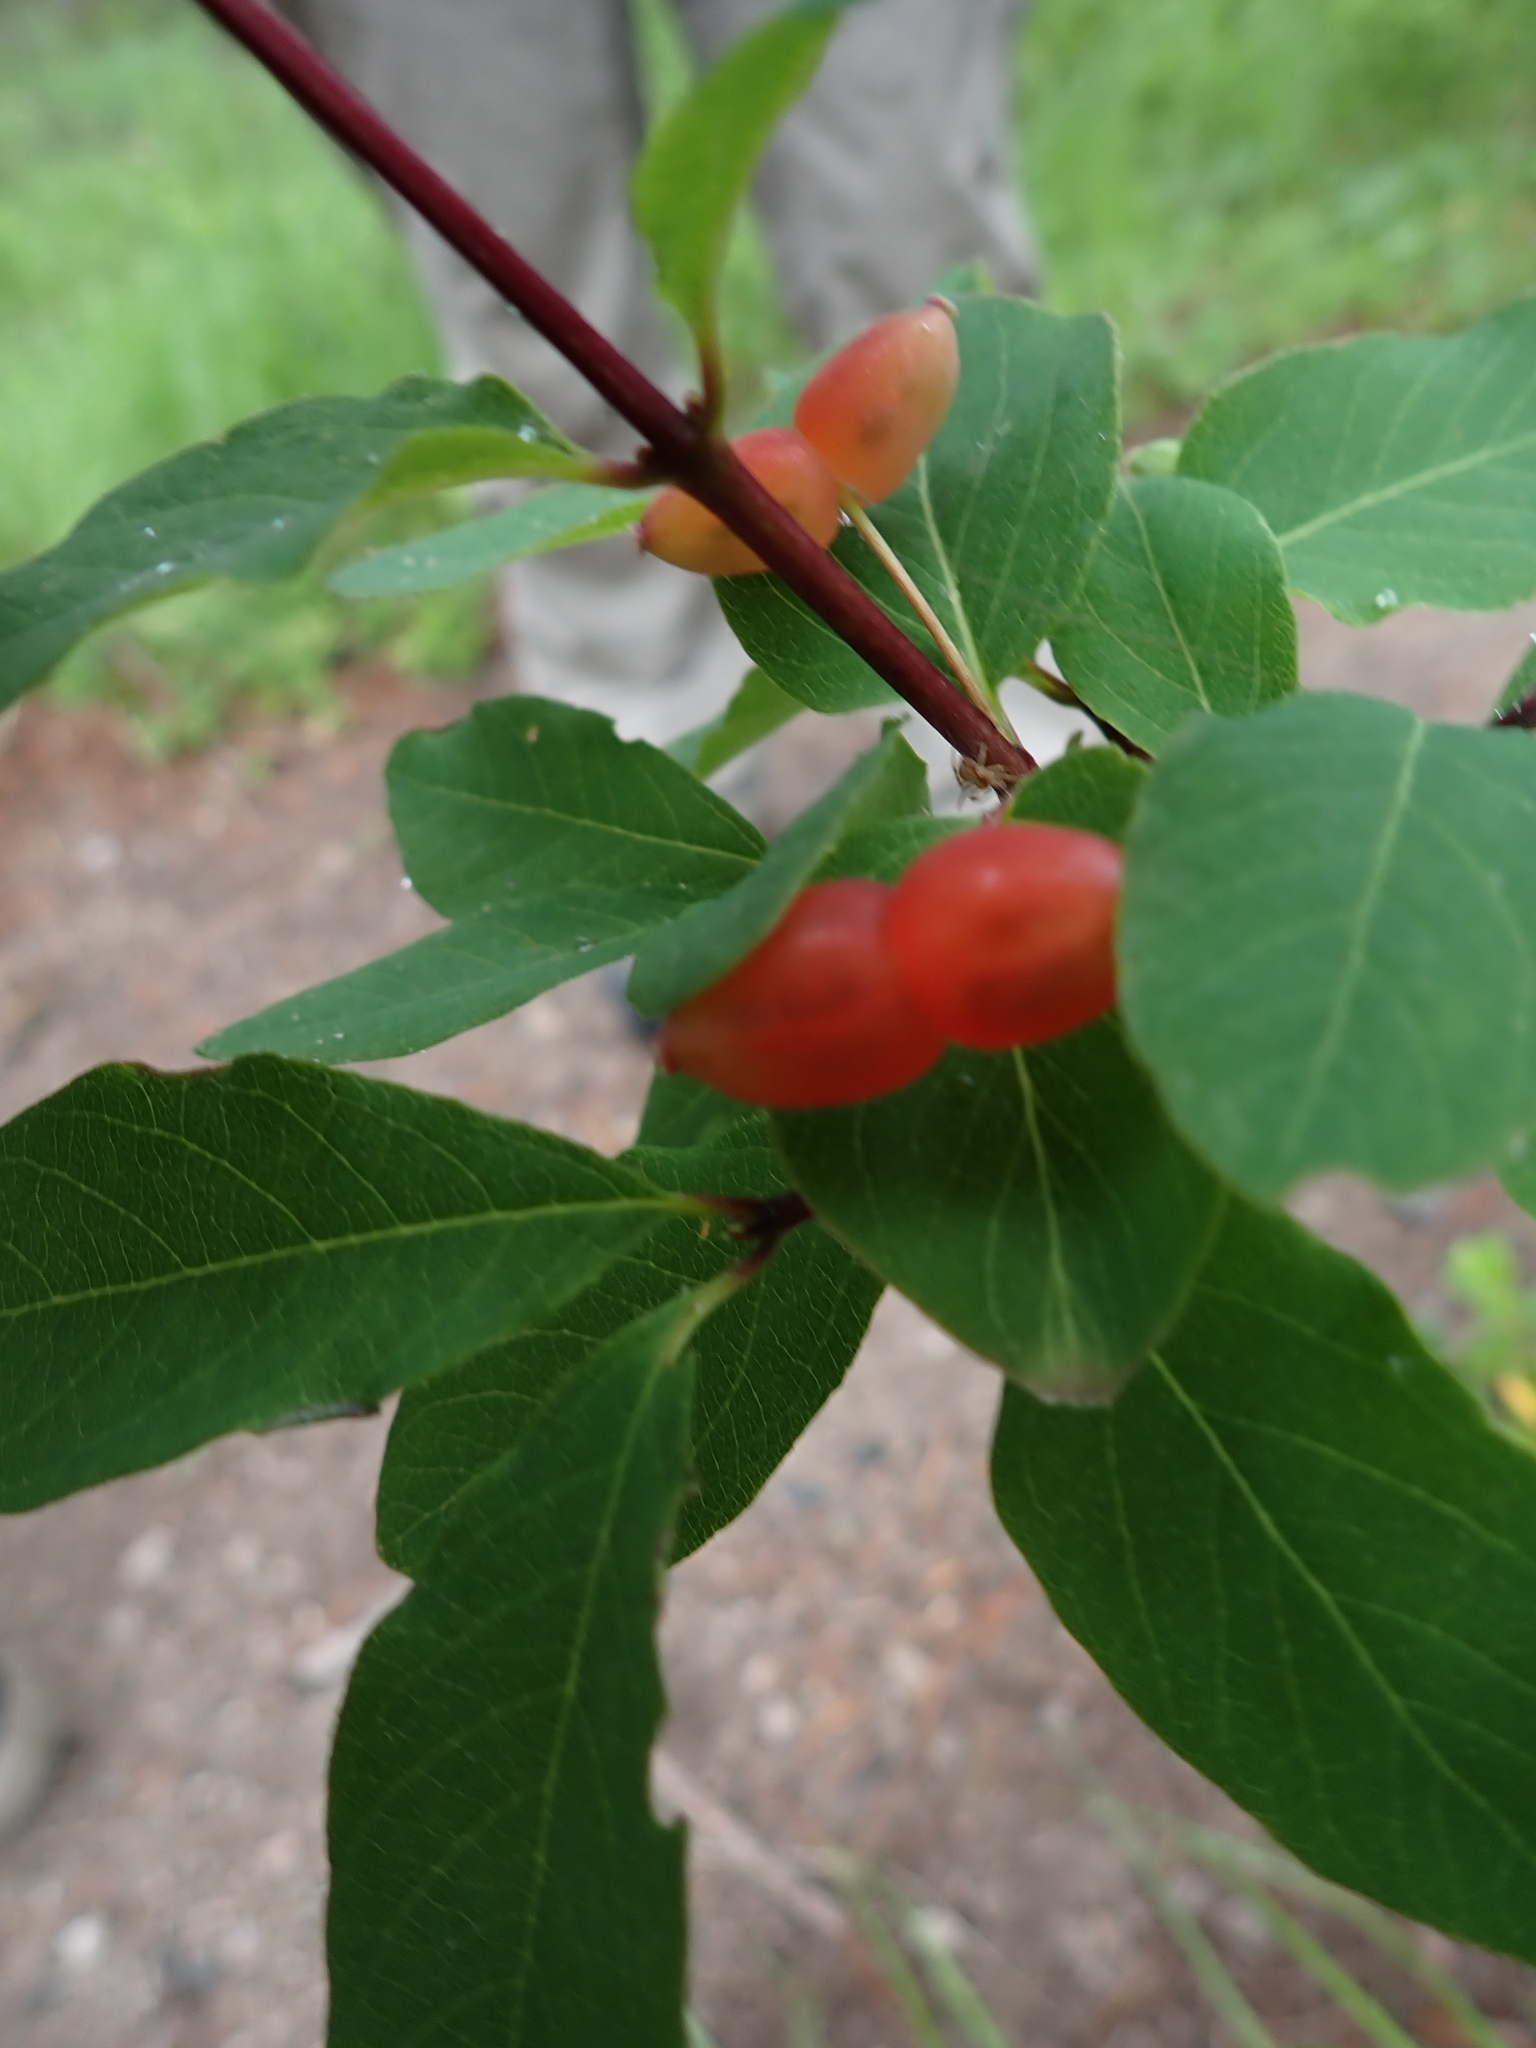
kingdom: Plantae
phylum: Tracheophyta
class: Magnoliopsida
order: Dipsacales
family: Caprifoliaceae
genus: Lonicera
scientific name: Lonicera utahensis
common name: Utah honeysuckle
